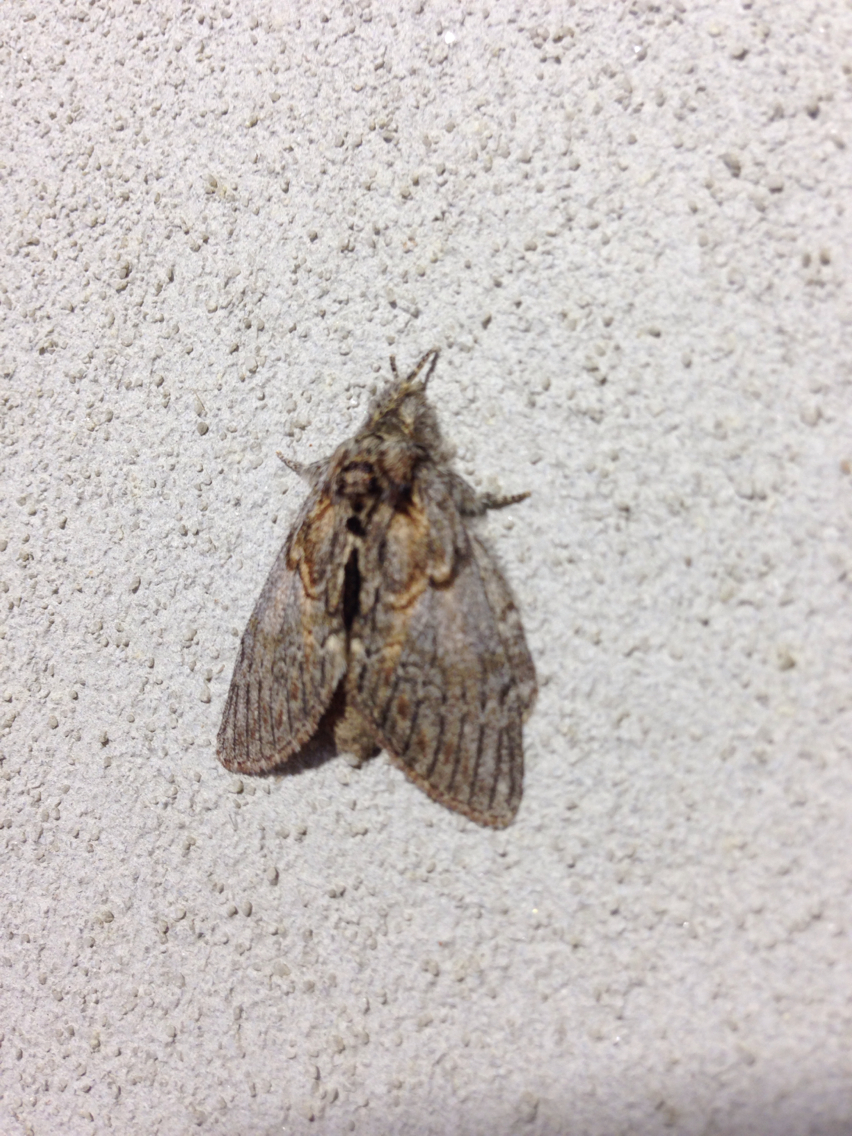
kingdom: Animalia
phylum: Arthropoda
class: Insecta
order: Lepidoptera
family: Notodontidae
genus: Peridea
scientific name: Peridea basitriens
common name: Oval-based prominent
